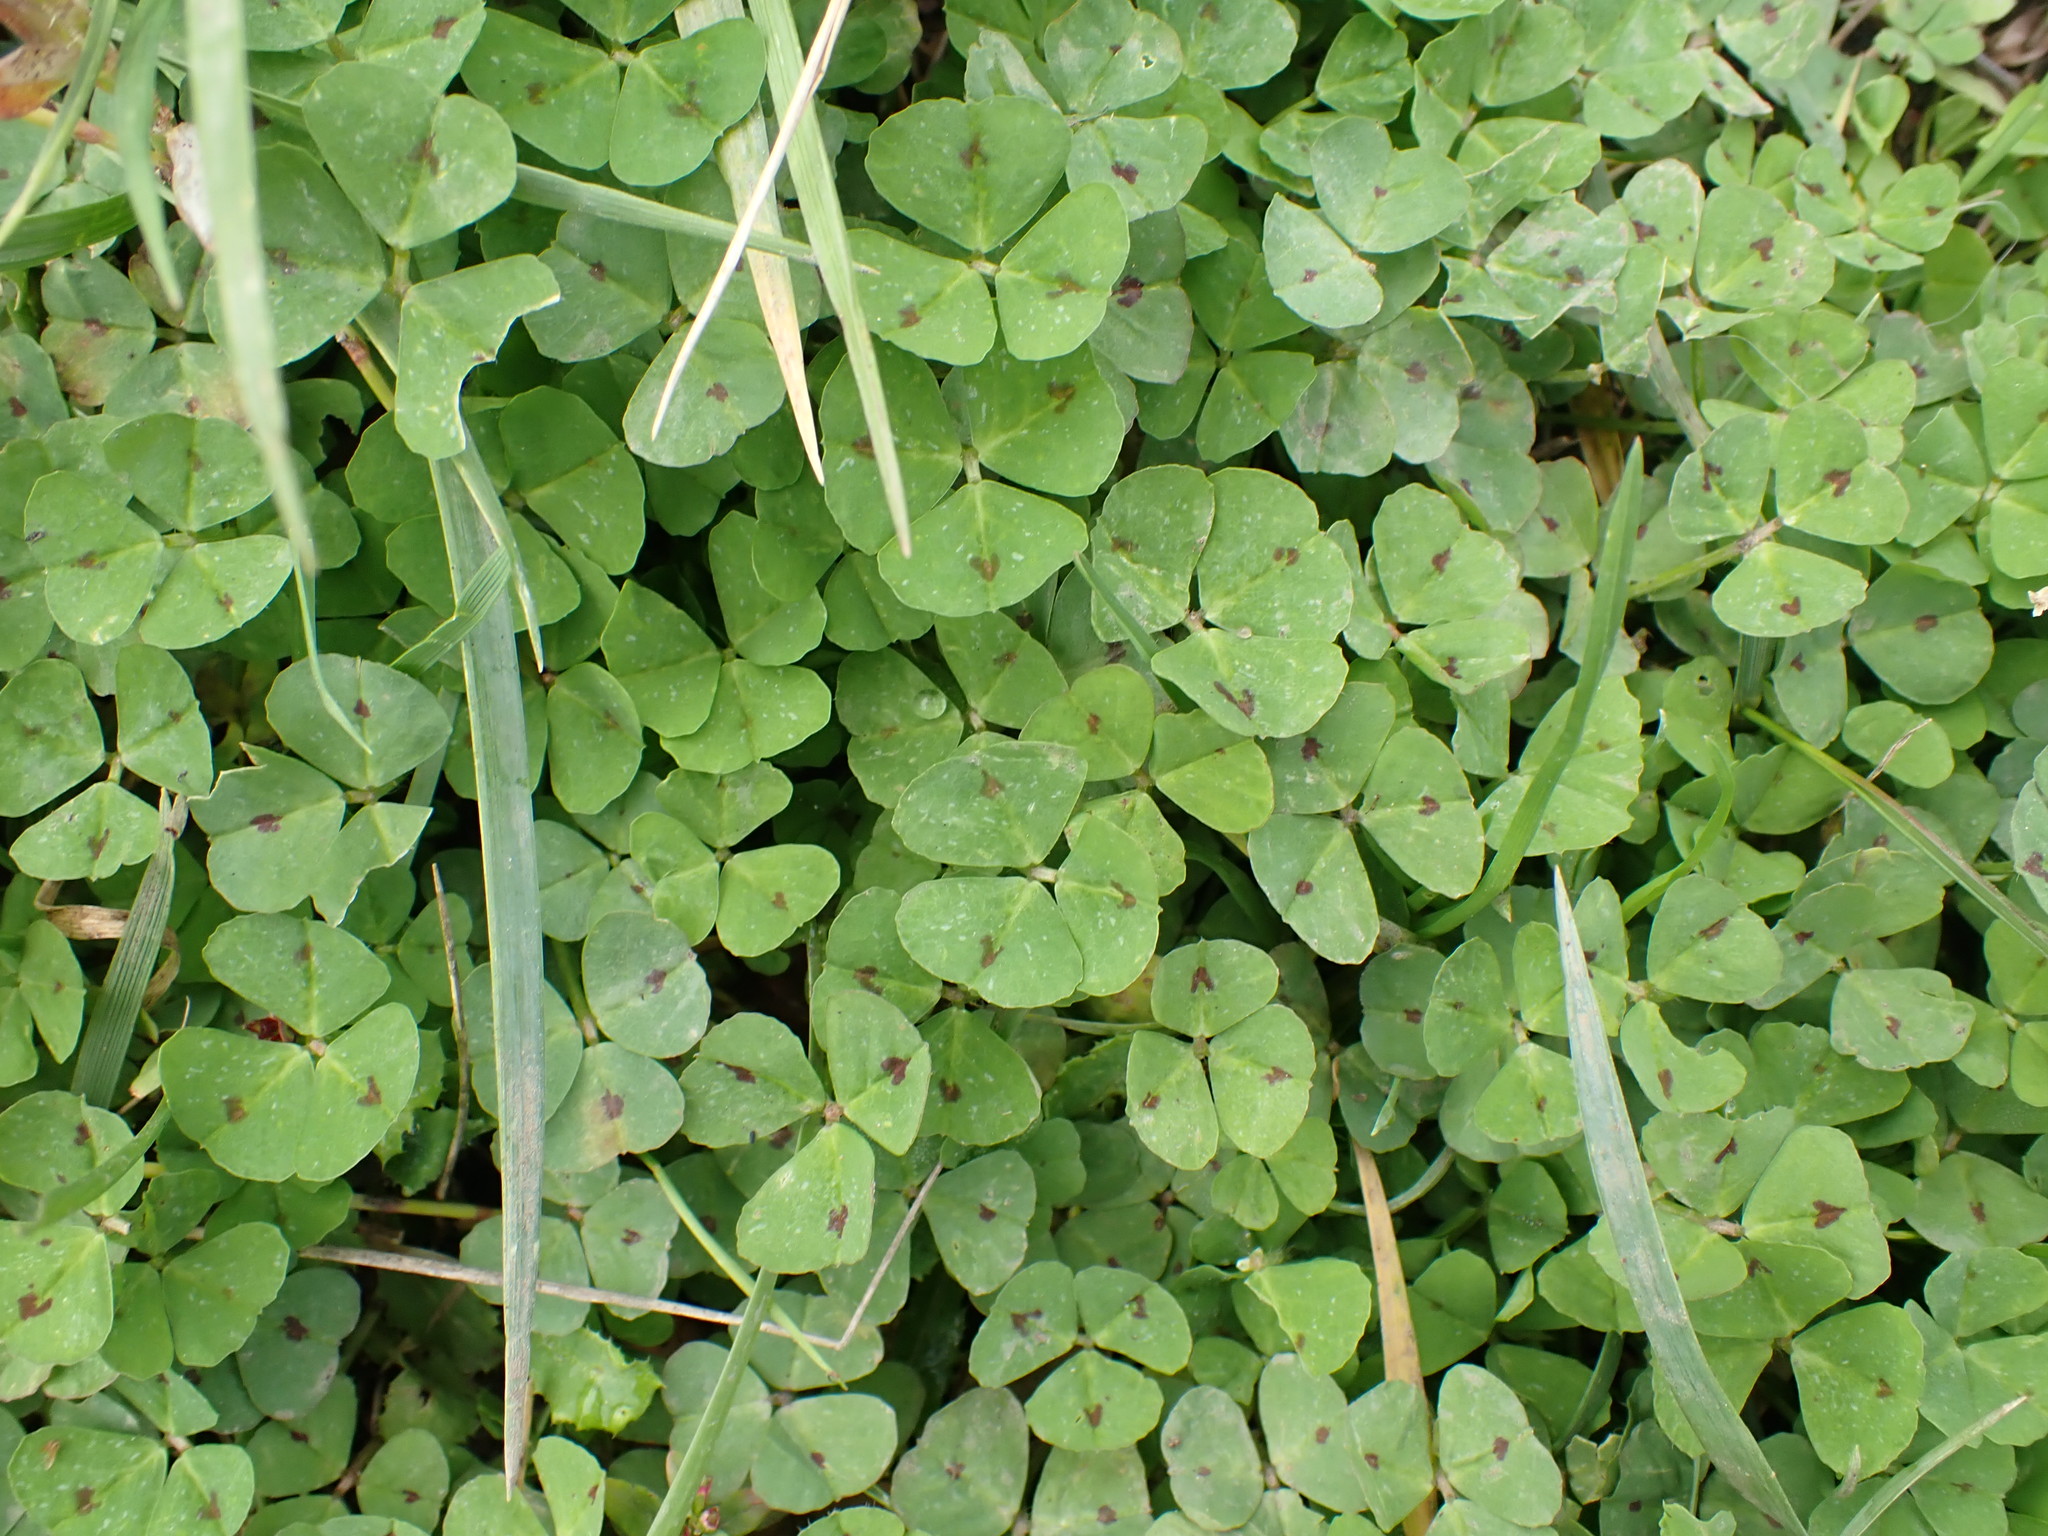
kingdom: Plantae
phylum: Tracheophyta
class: Magnoliopsida
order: Fabales
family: Fabaceae
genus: Medicago
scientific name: Medicago arabica
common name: Spotted medick
